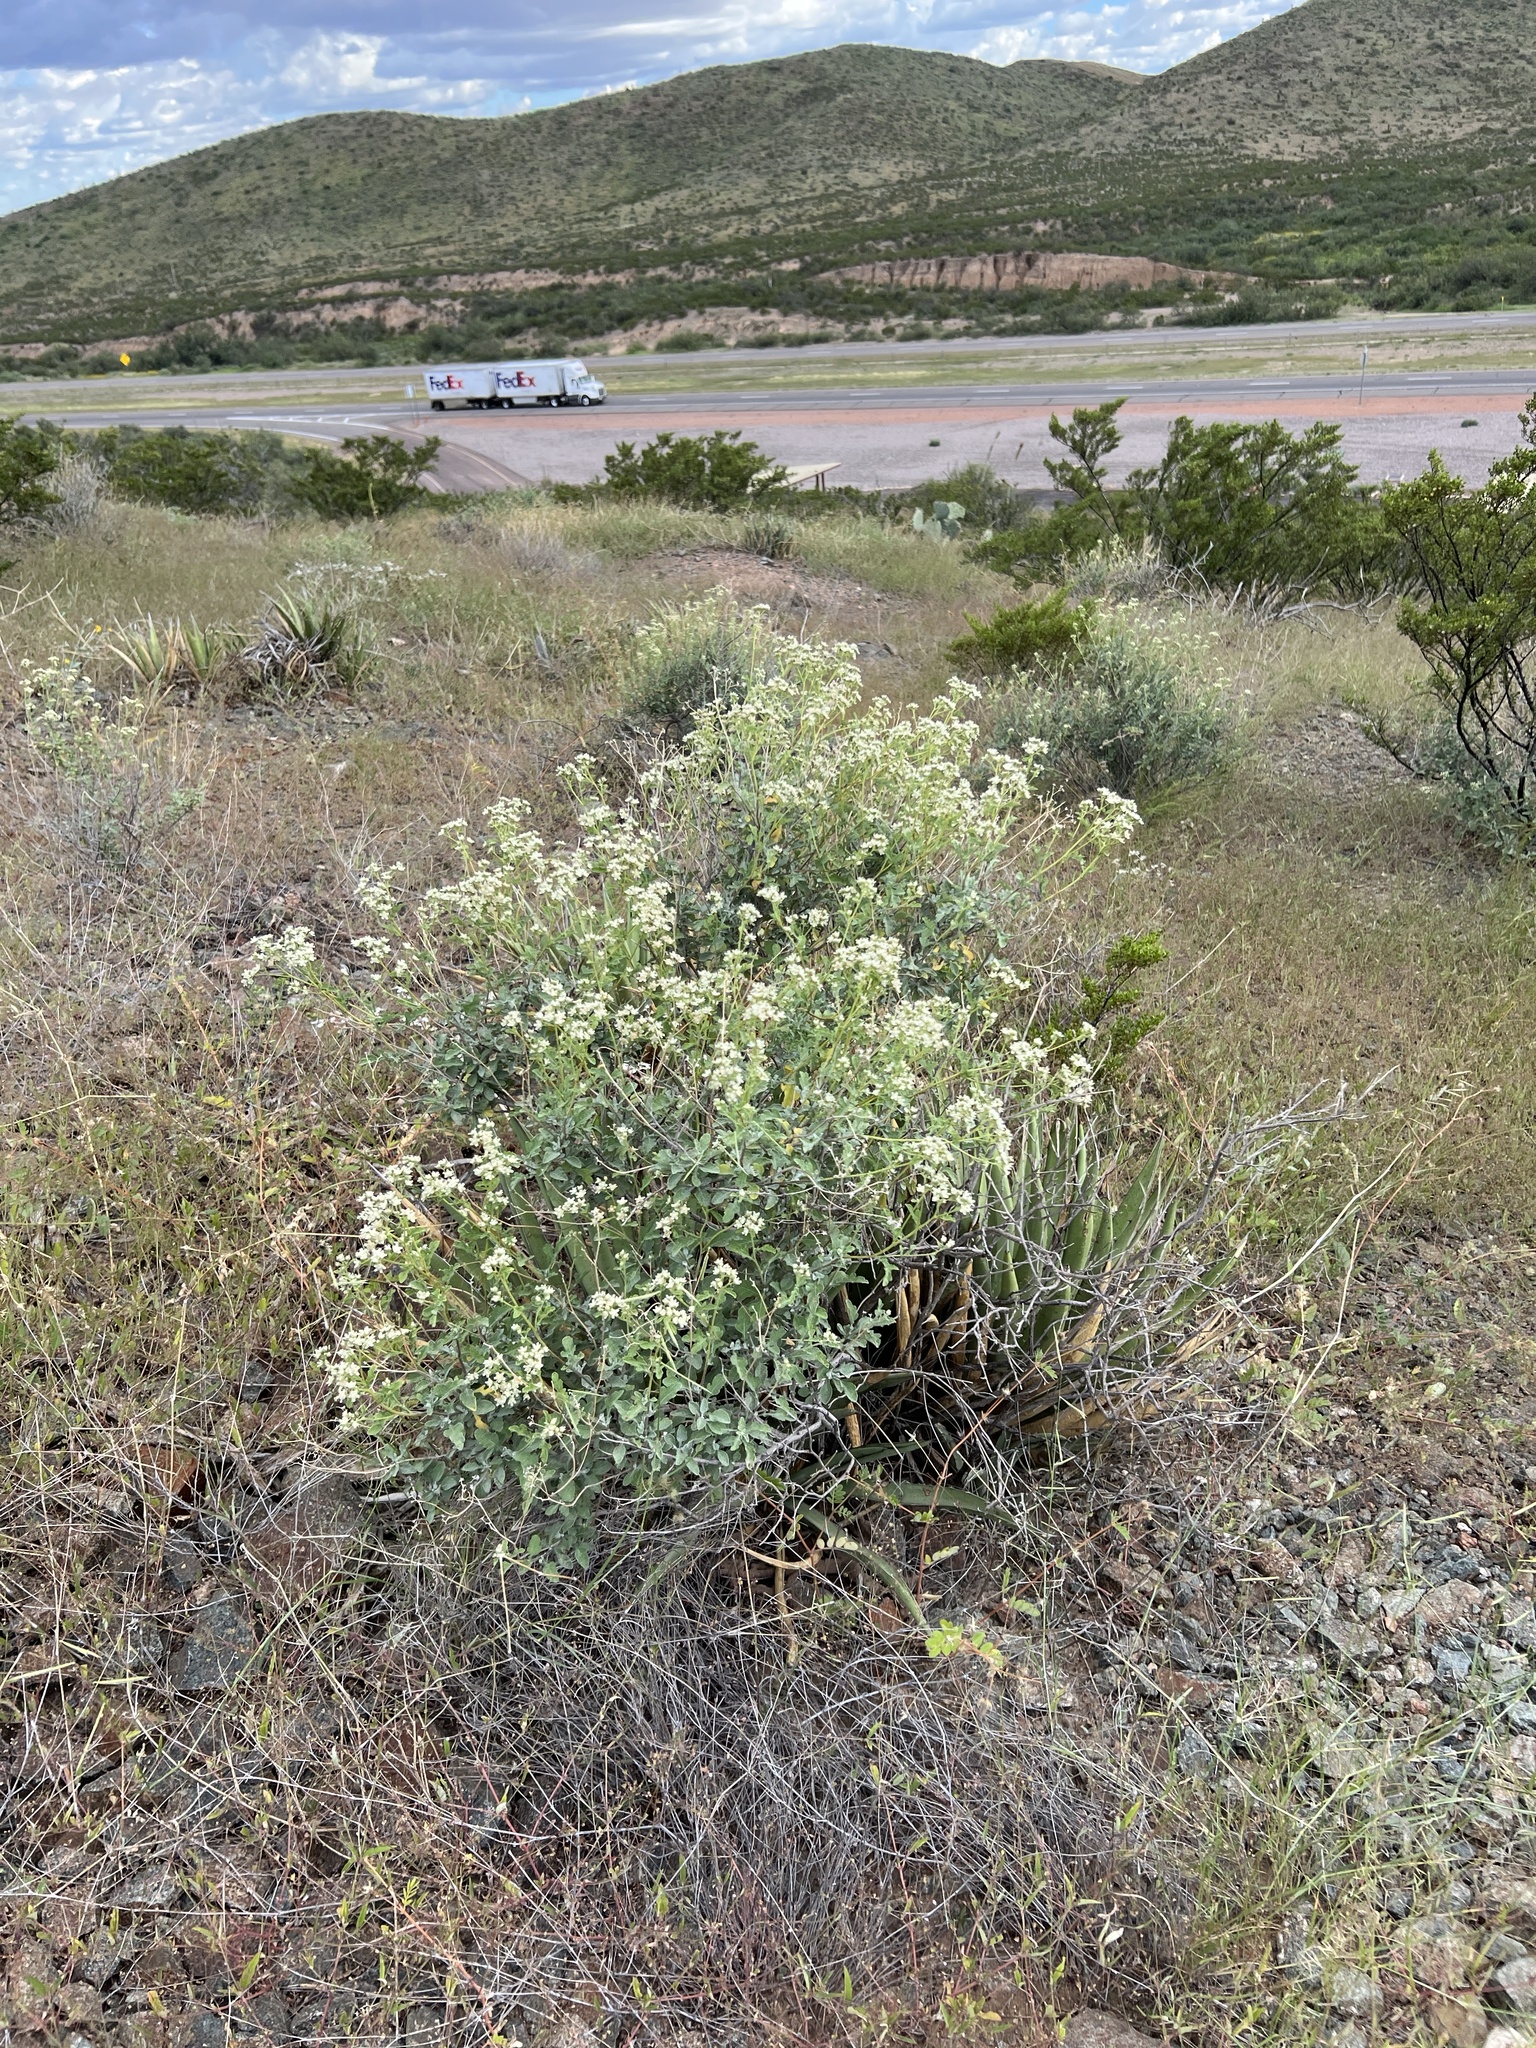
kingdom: Plantae
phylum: Tracheophyta
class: Magnoliopsida
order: Asterales
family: Asteraceae
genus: Parthenium
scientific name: Parthenium incanum
